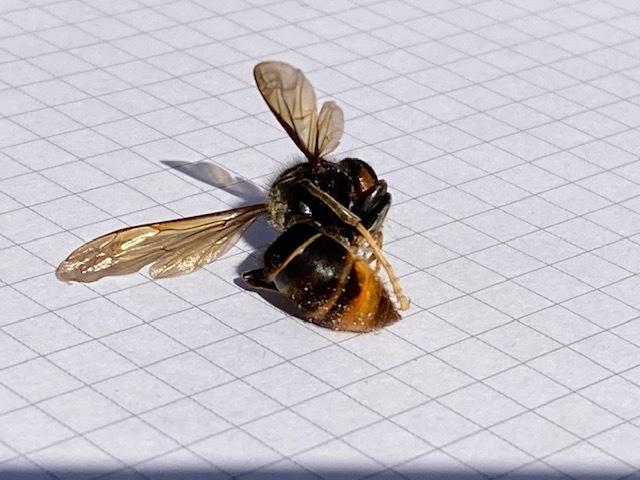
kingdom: Animalia
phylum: Arthropoda
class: Insecta
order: Hymenoptera
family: Vespidae
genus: Vespa
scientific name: Vespa velutina
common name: Asian hornet
